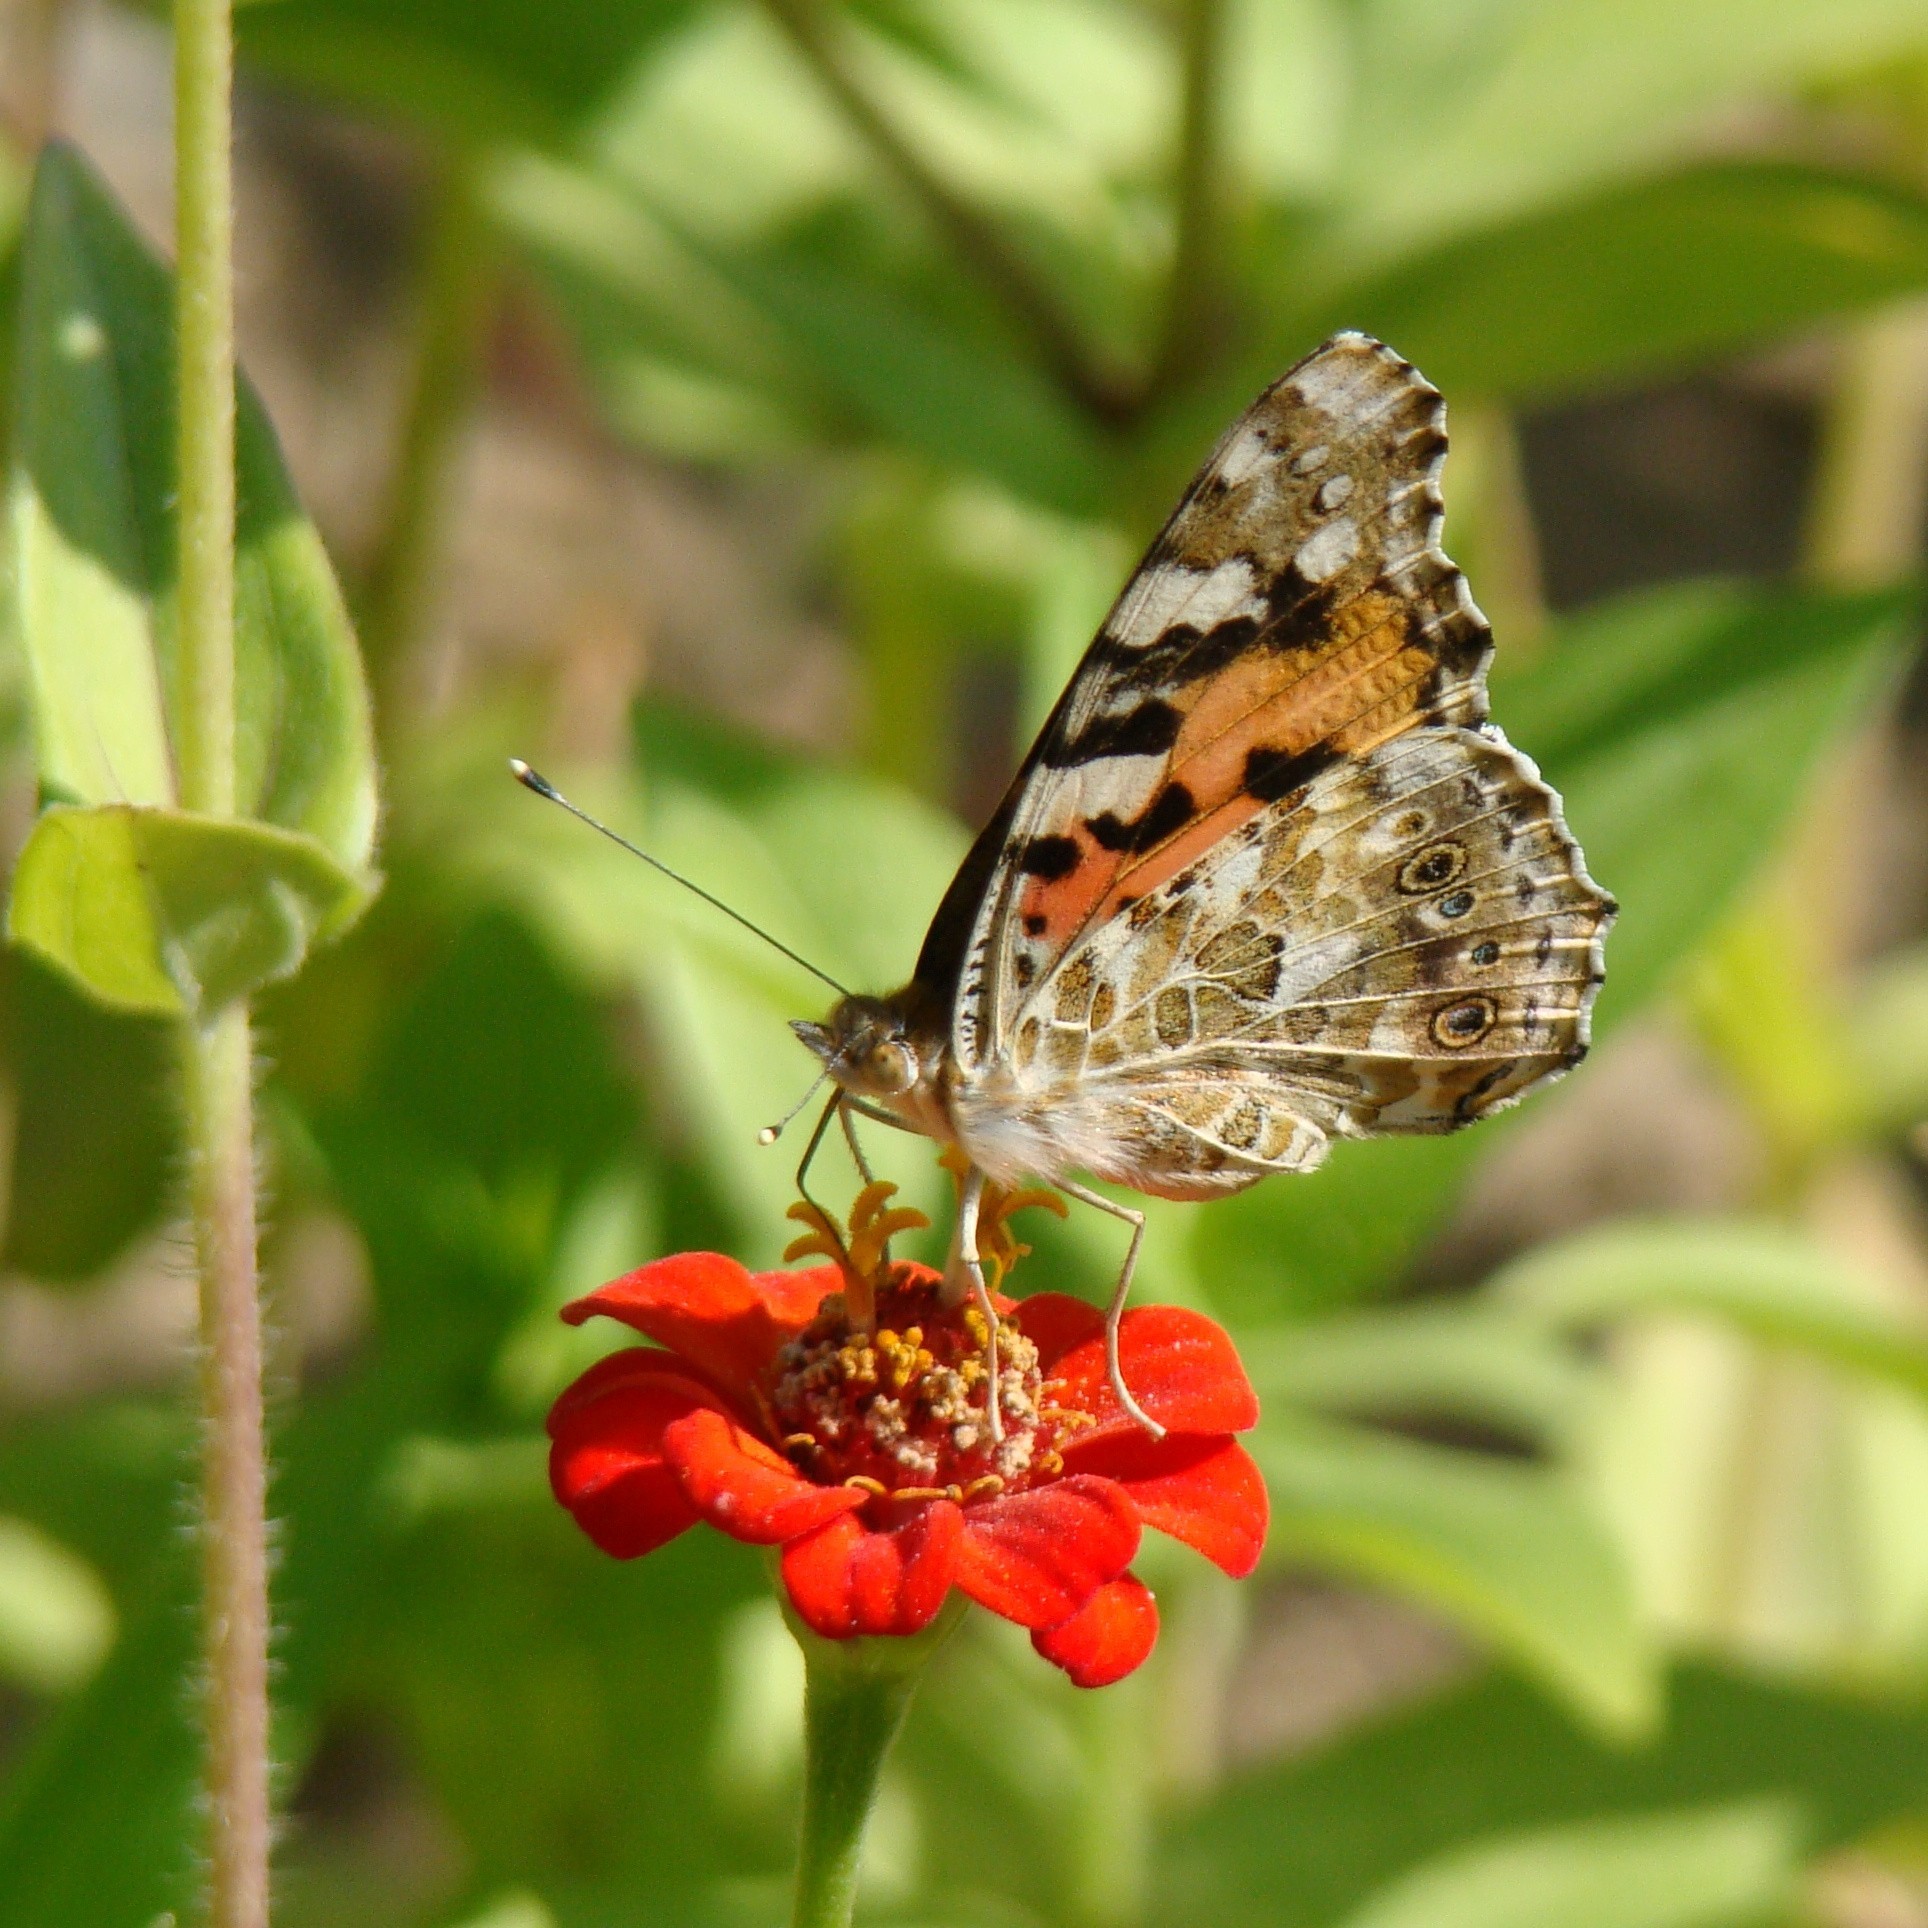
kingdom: Animalia
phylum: Arthropoda
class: Insecta
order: Lepidoptera
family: Nymphalidae
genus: Vanessa
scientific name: Vanessa cardui
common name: Painted lady
